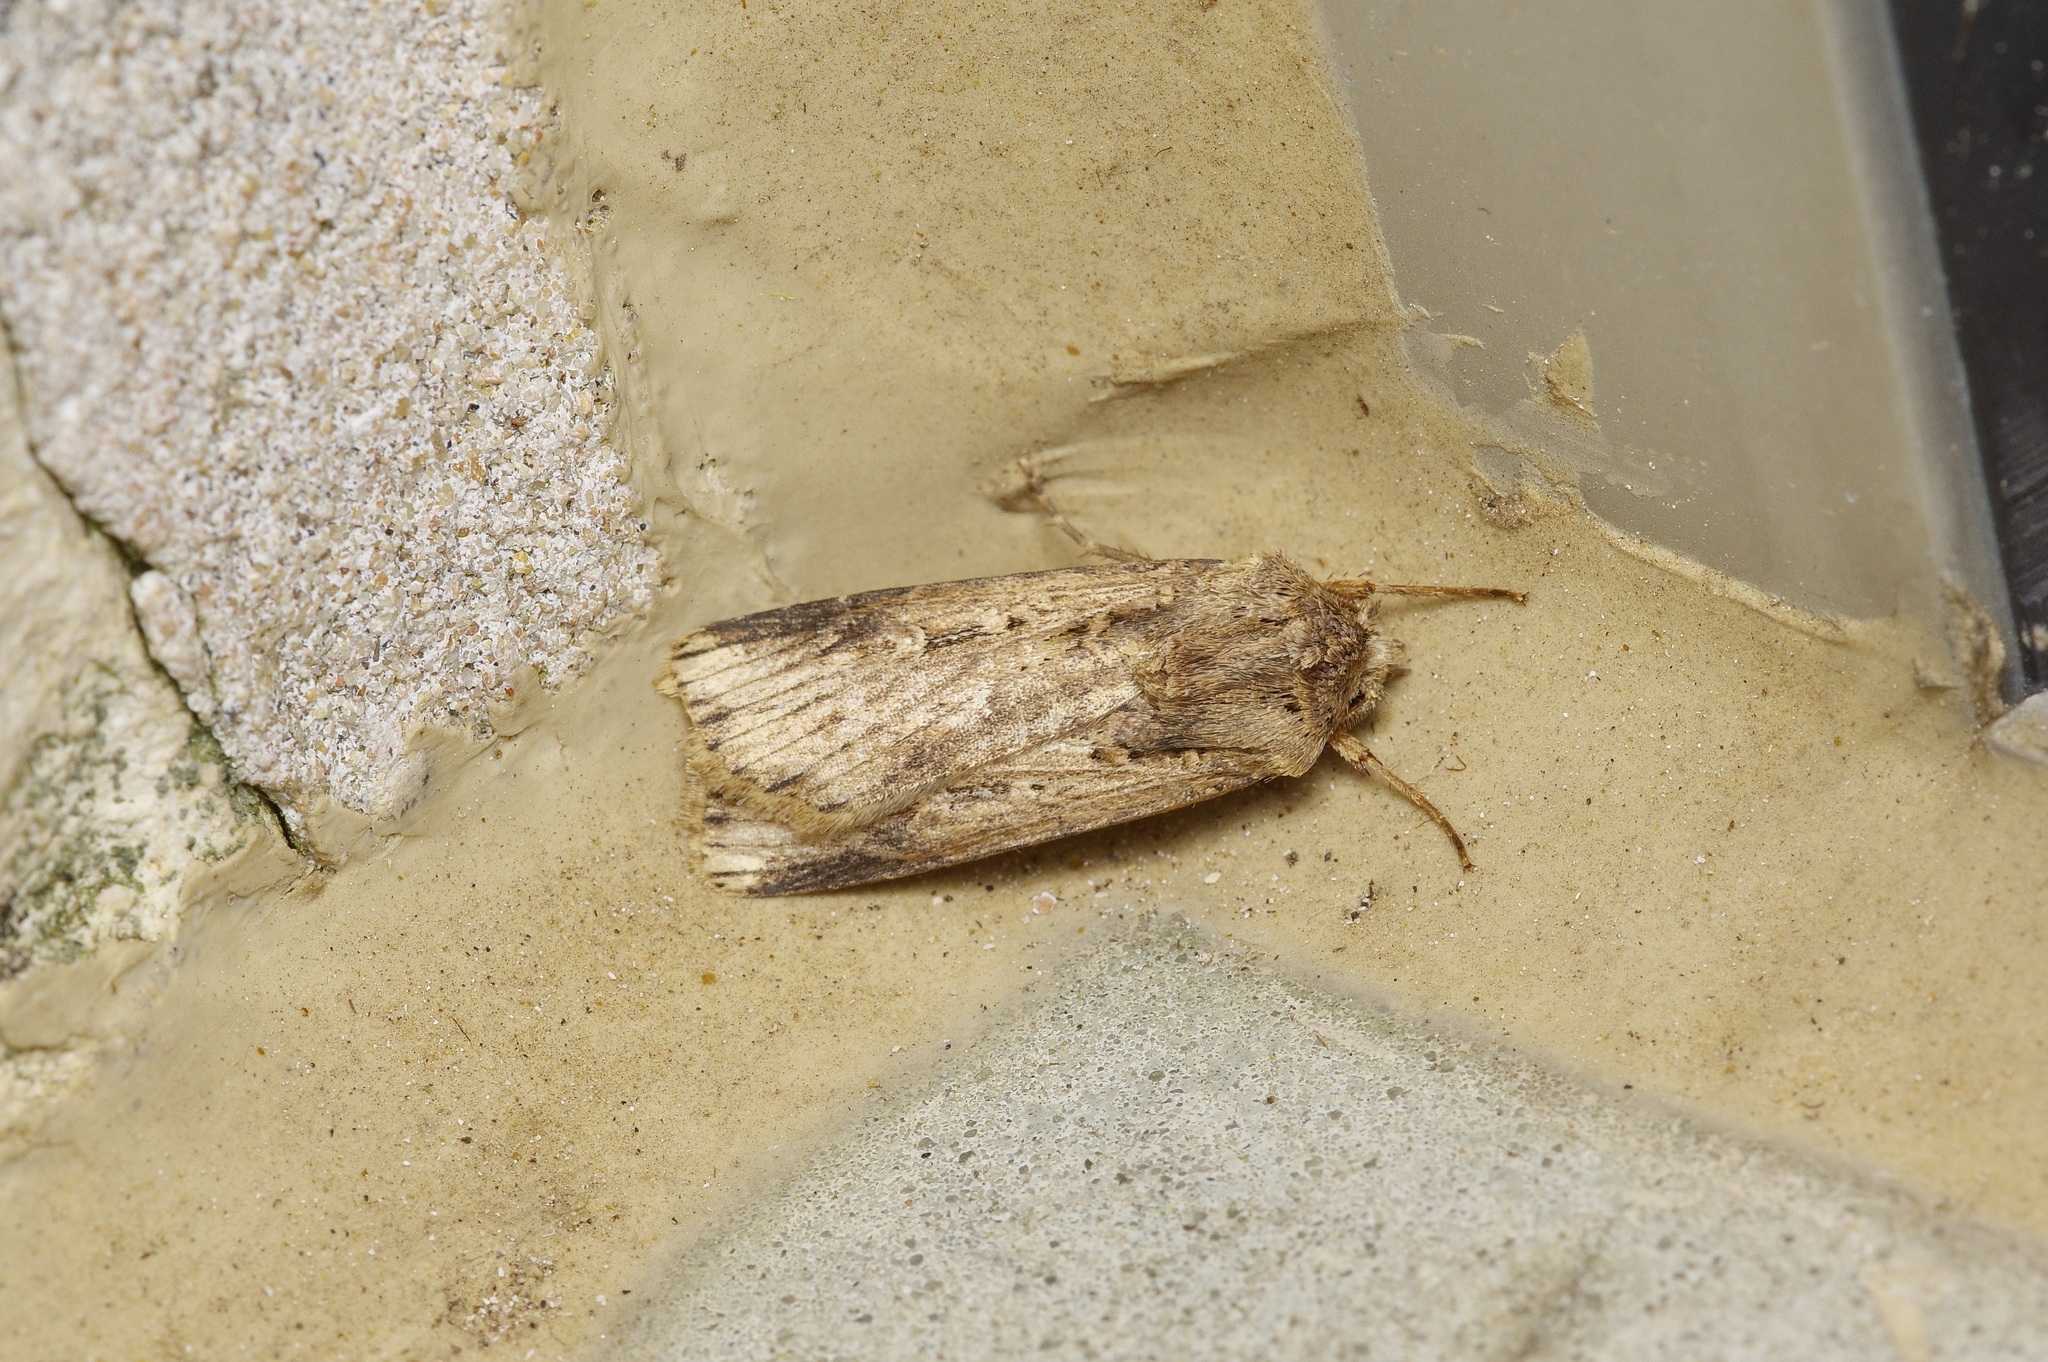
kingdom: Animalia
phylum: Arthropoda
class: Insecta
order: Lepidoptera
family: Noctuidae
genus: Feltia
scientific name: Feltia subterranea
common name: Granulate cutworm
